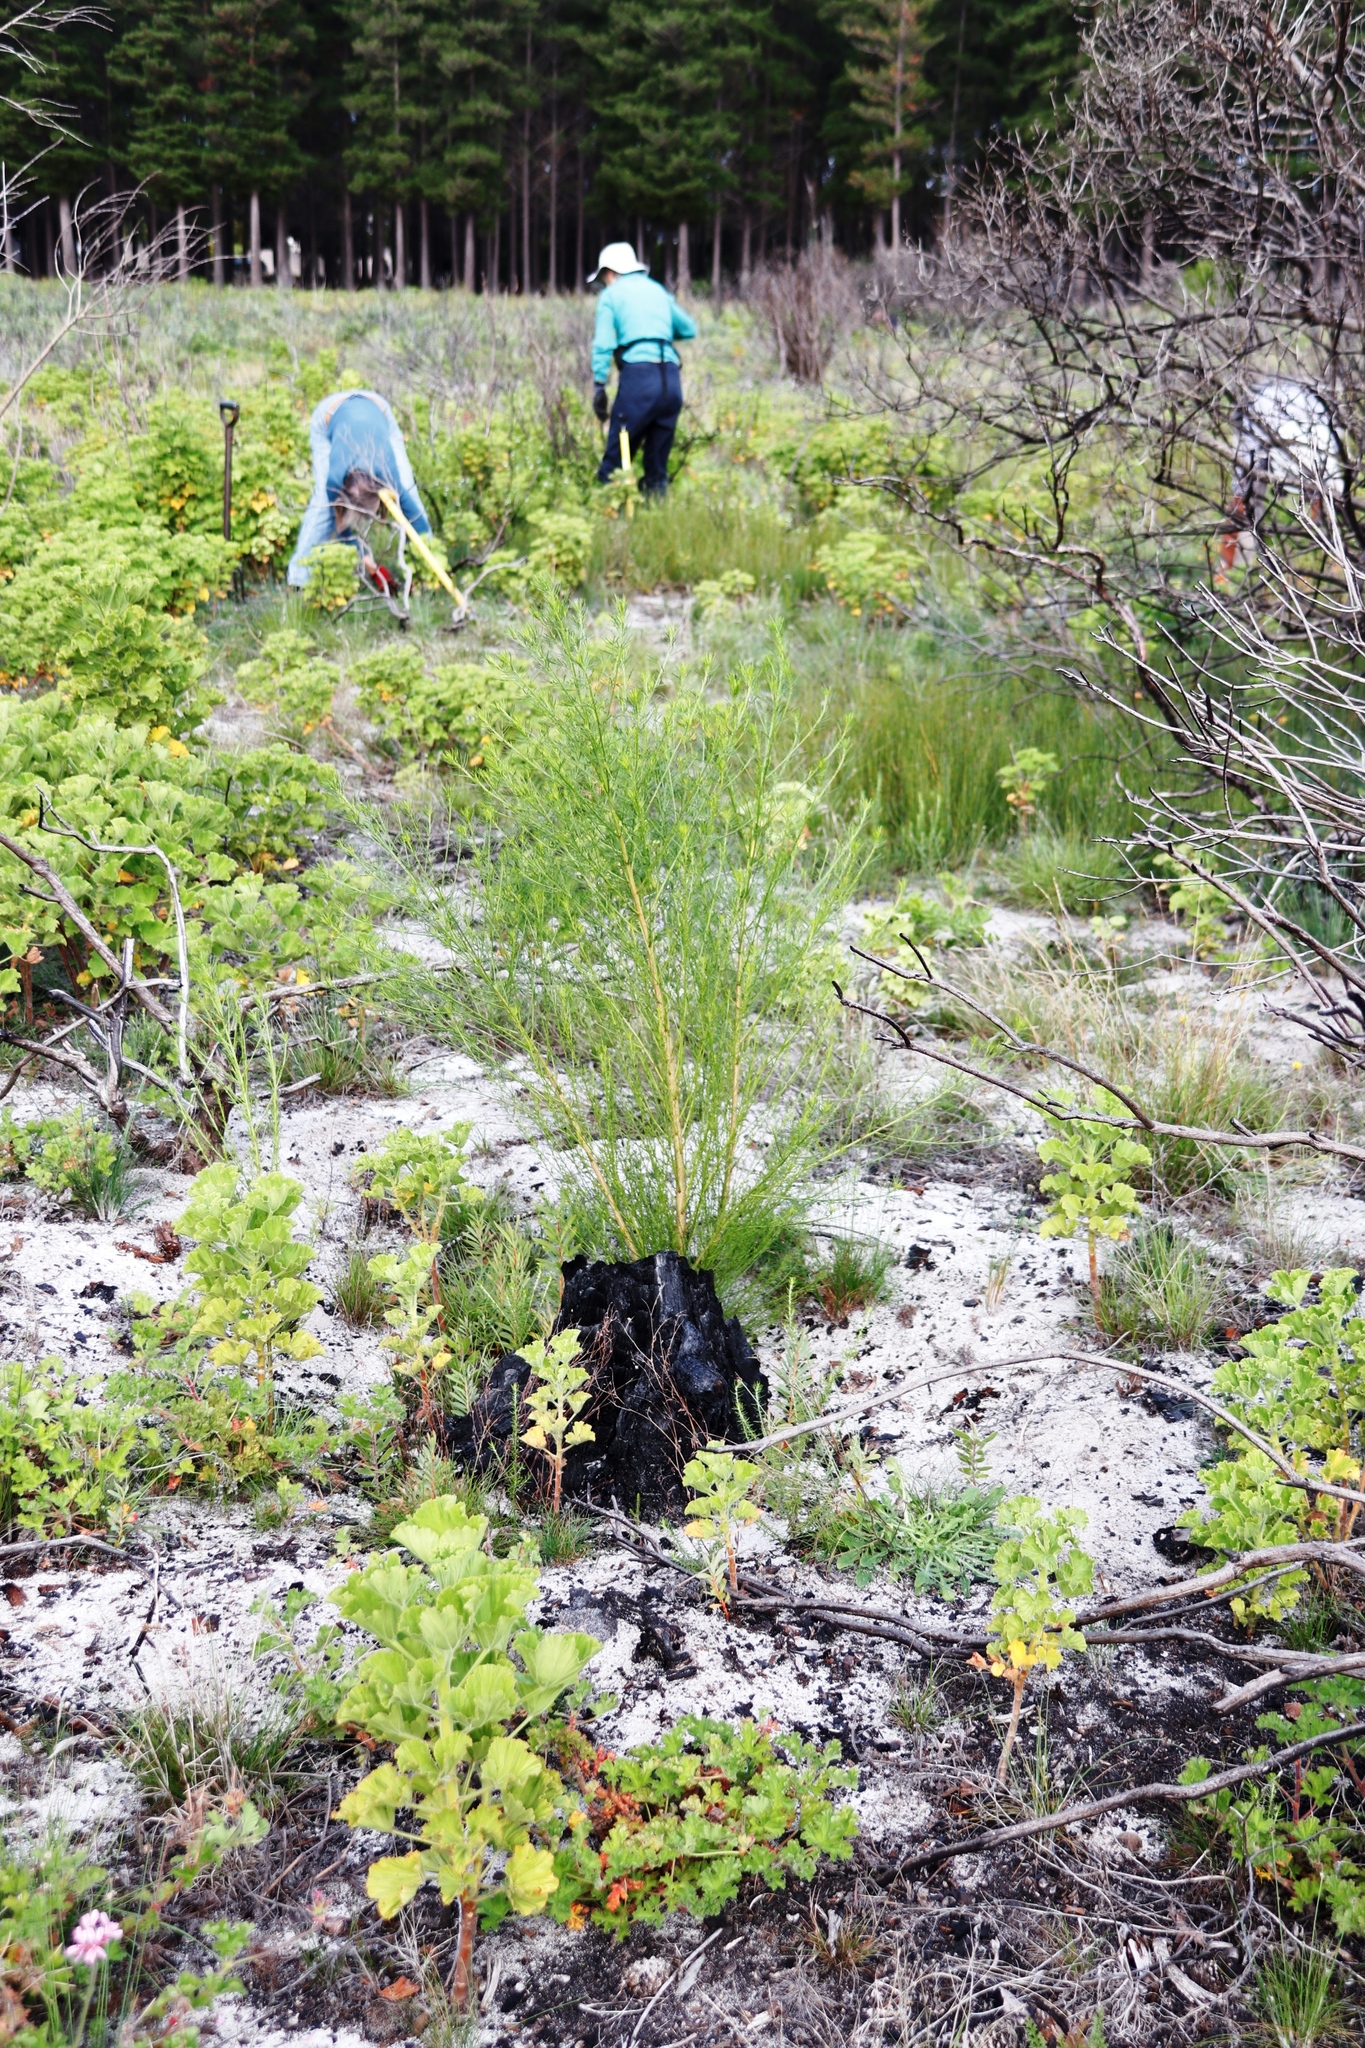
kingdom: Plantae
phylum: Tracheophyta
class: Magnoliopsida
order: Fabales
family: Fabaceae
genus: Psoralea
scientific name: Psoralea pinnata
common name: African scurfpea
